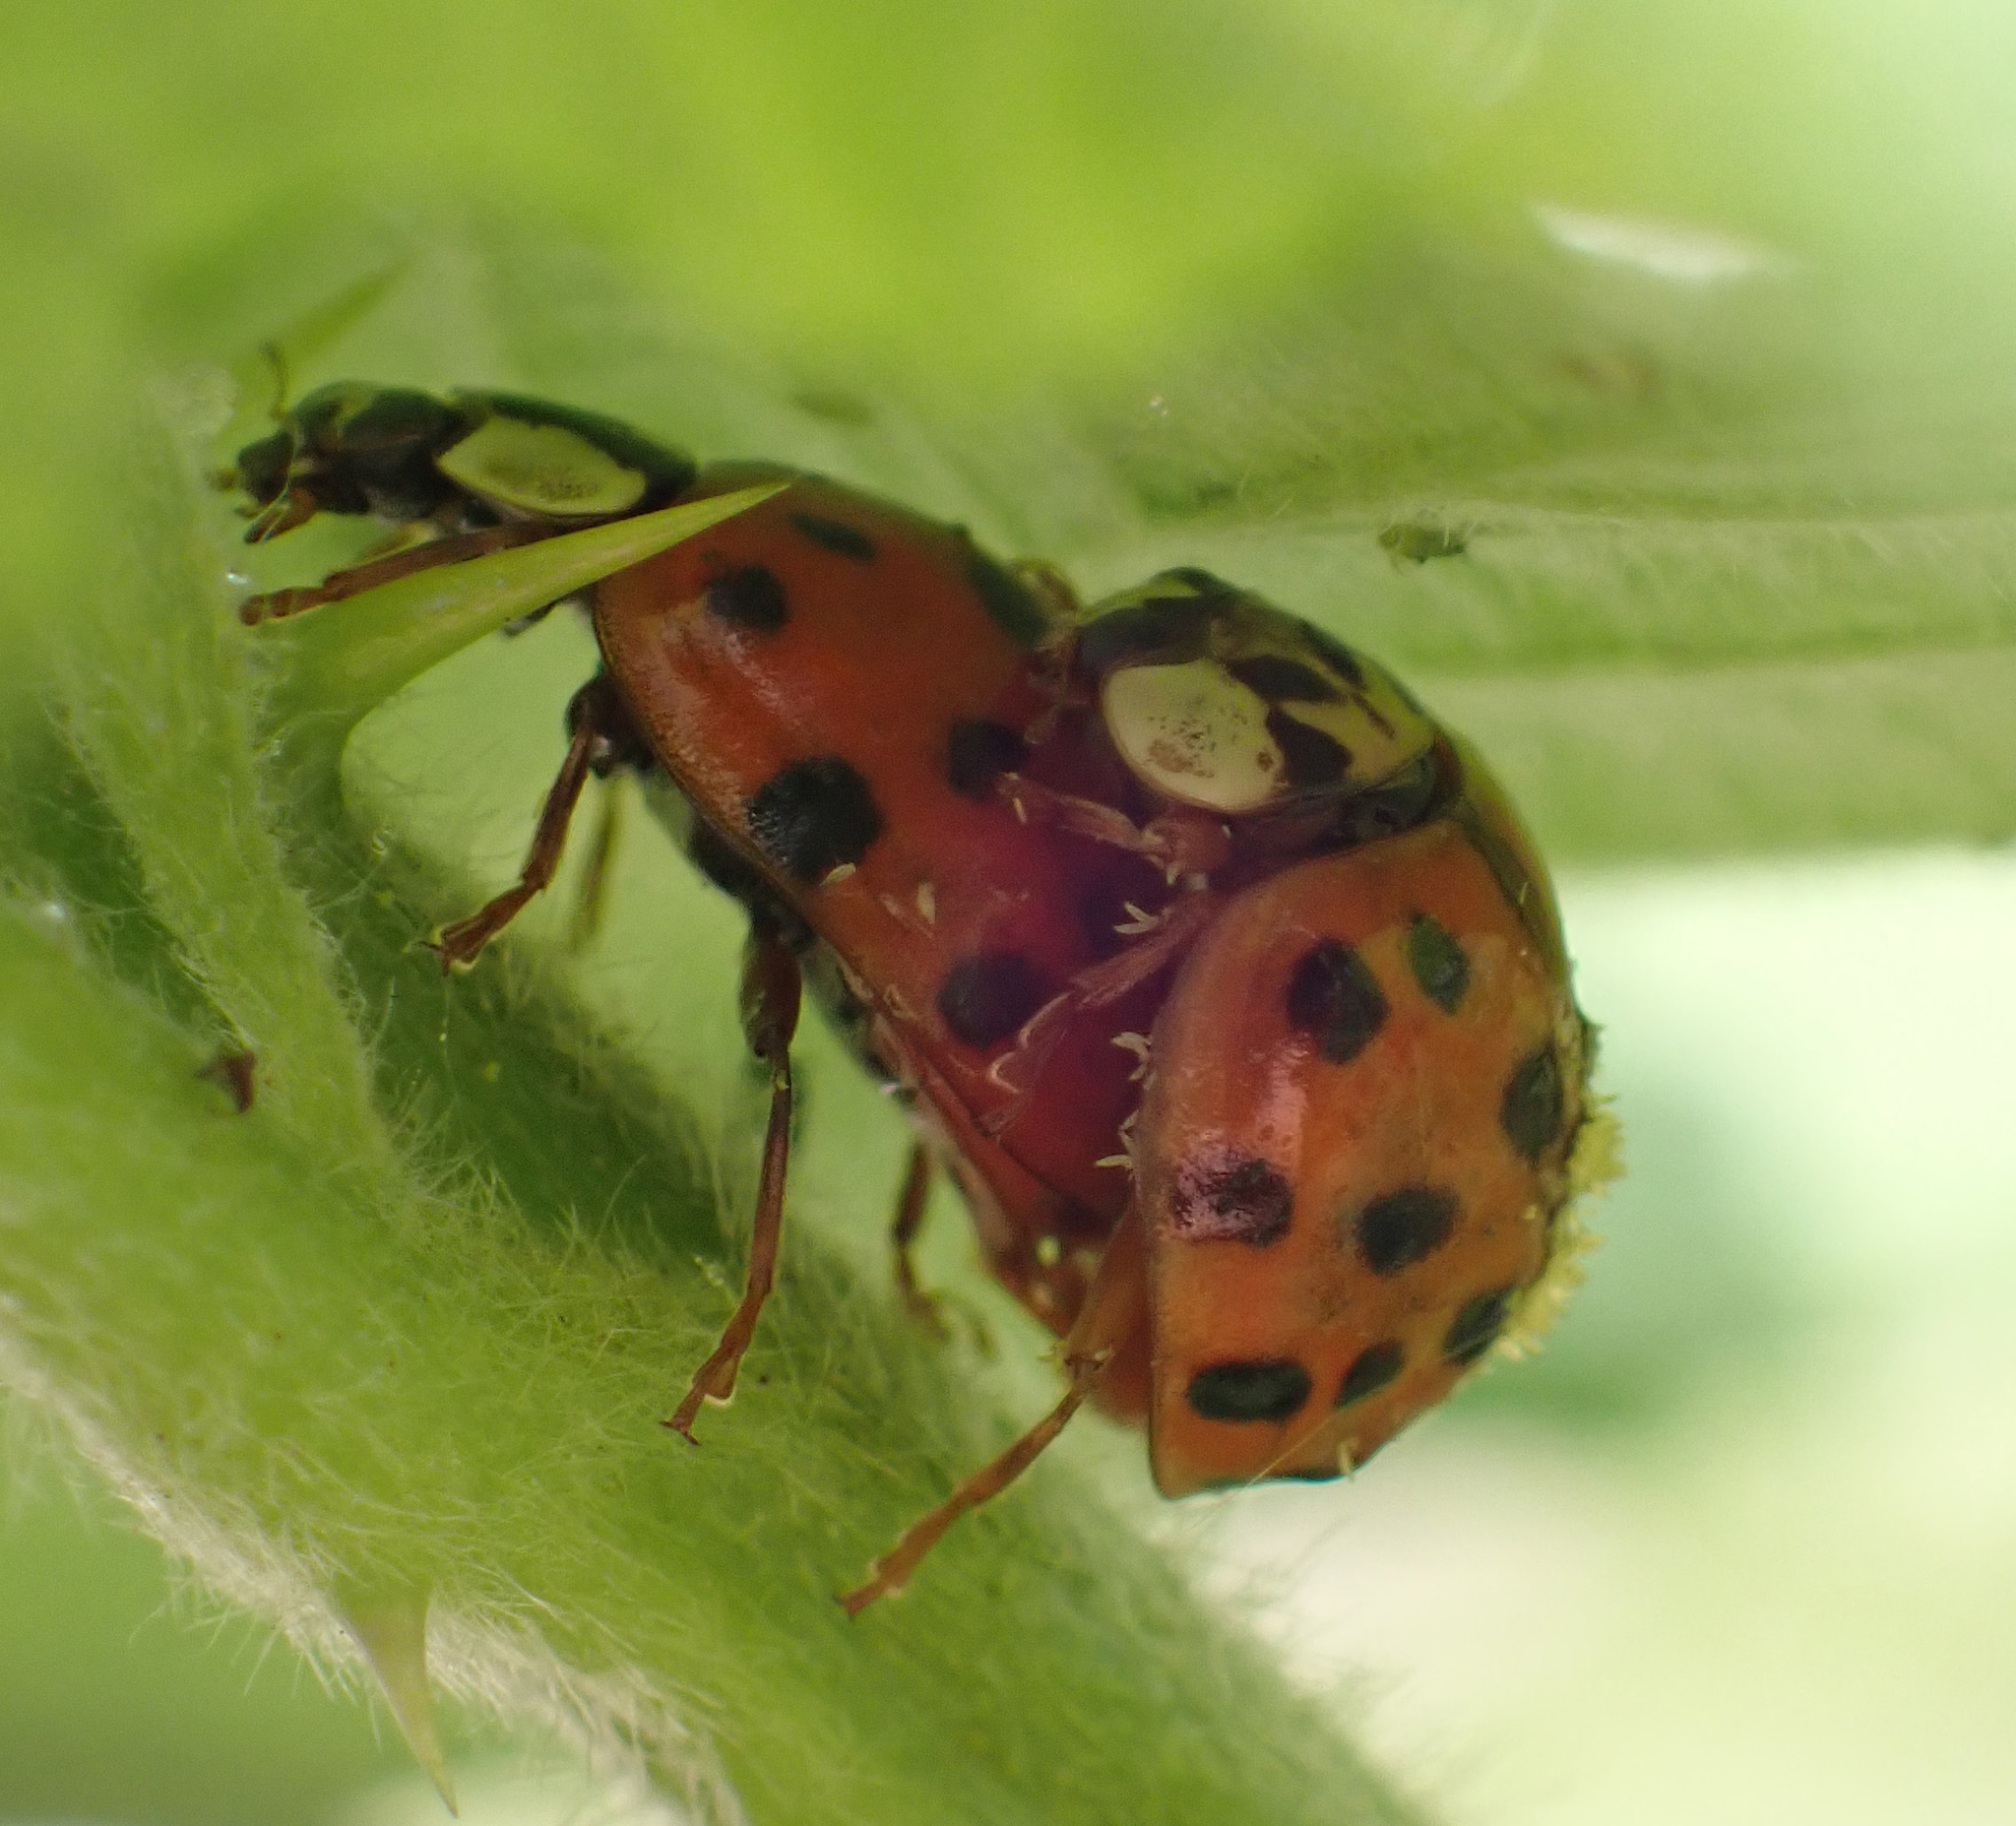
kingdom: Animalia
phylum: Arthropoda
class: Insecta
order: Coleoptera
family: Coccinellidae
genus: Harmonia
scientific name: Harmonia axyridis
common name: Harlequin ladybird
